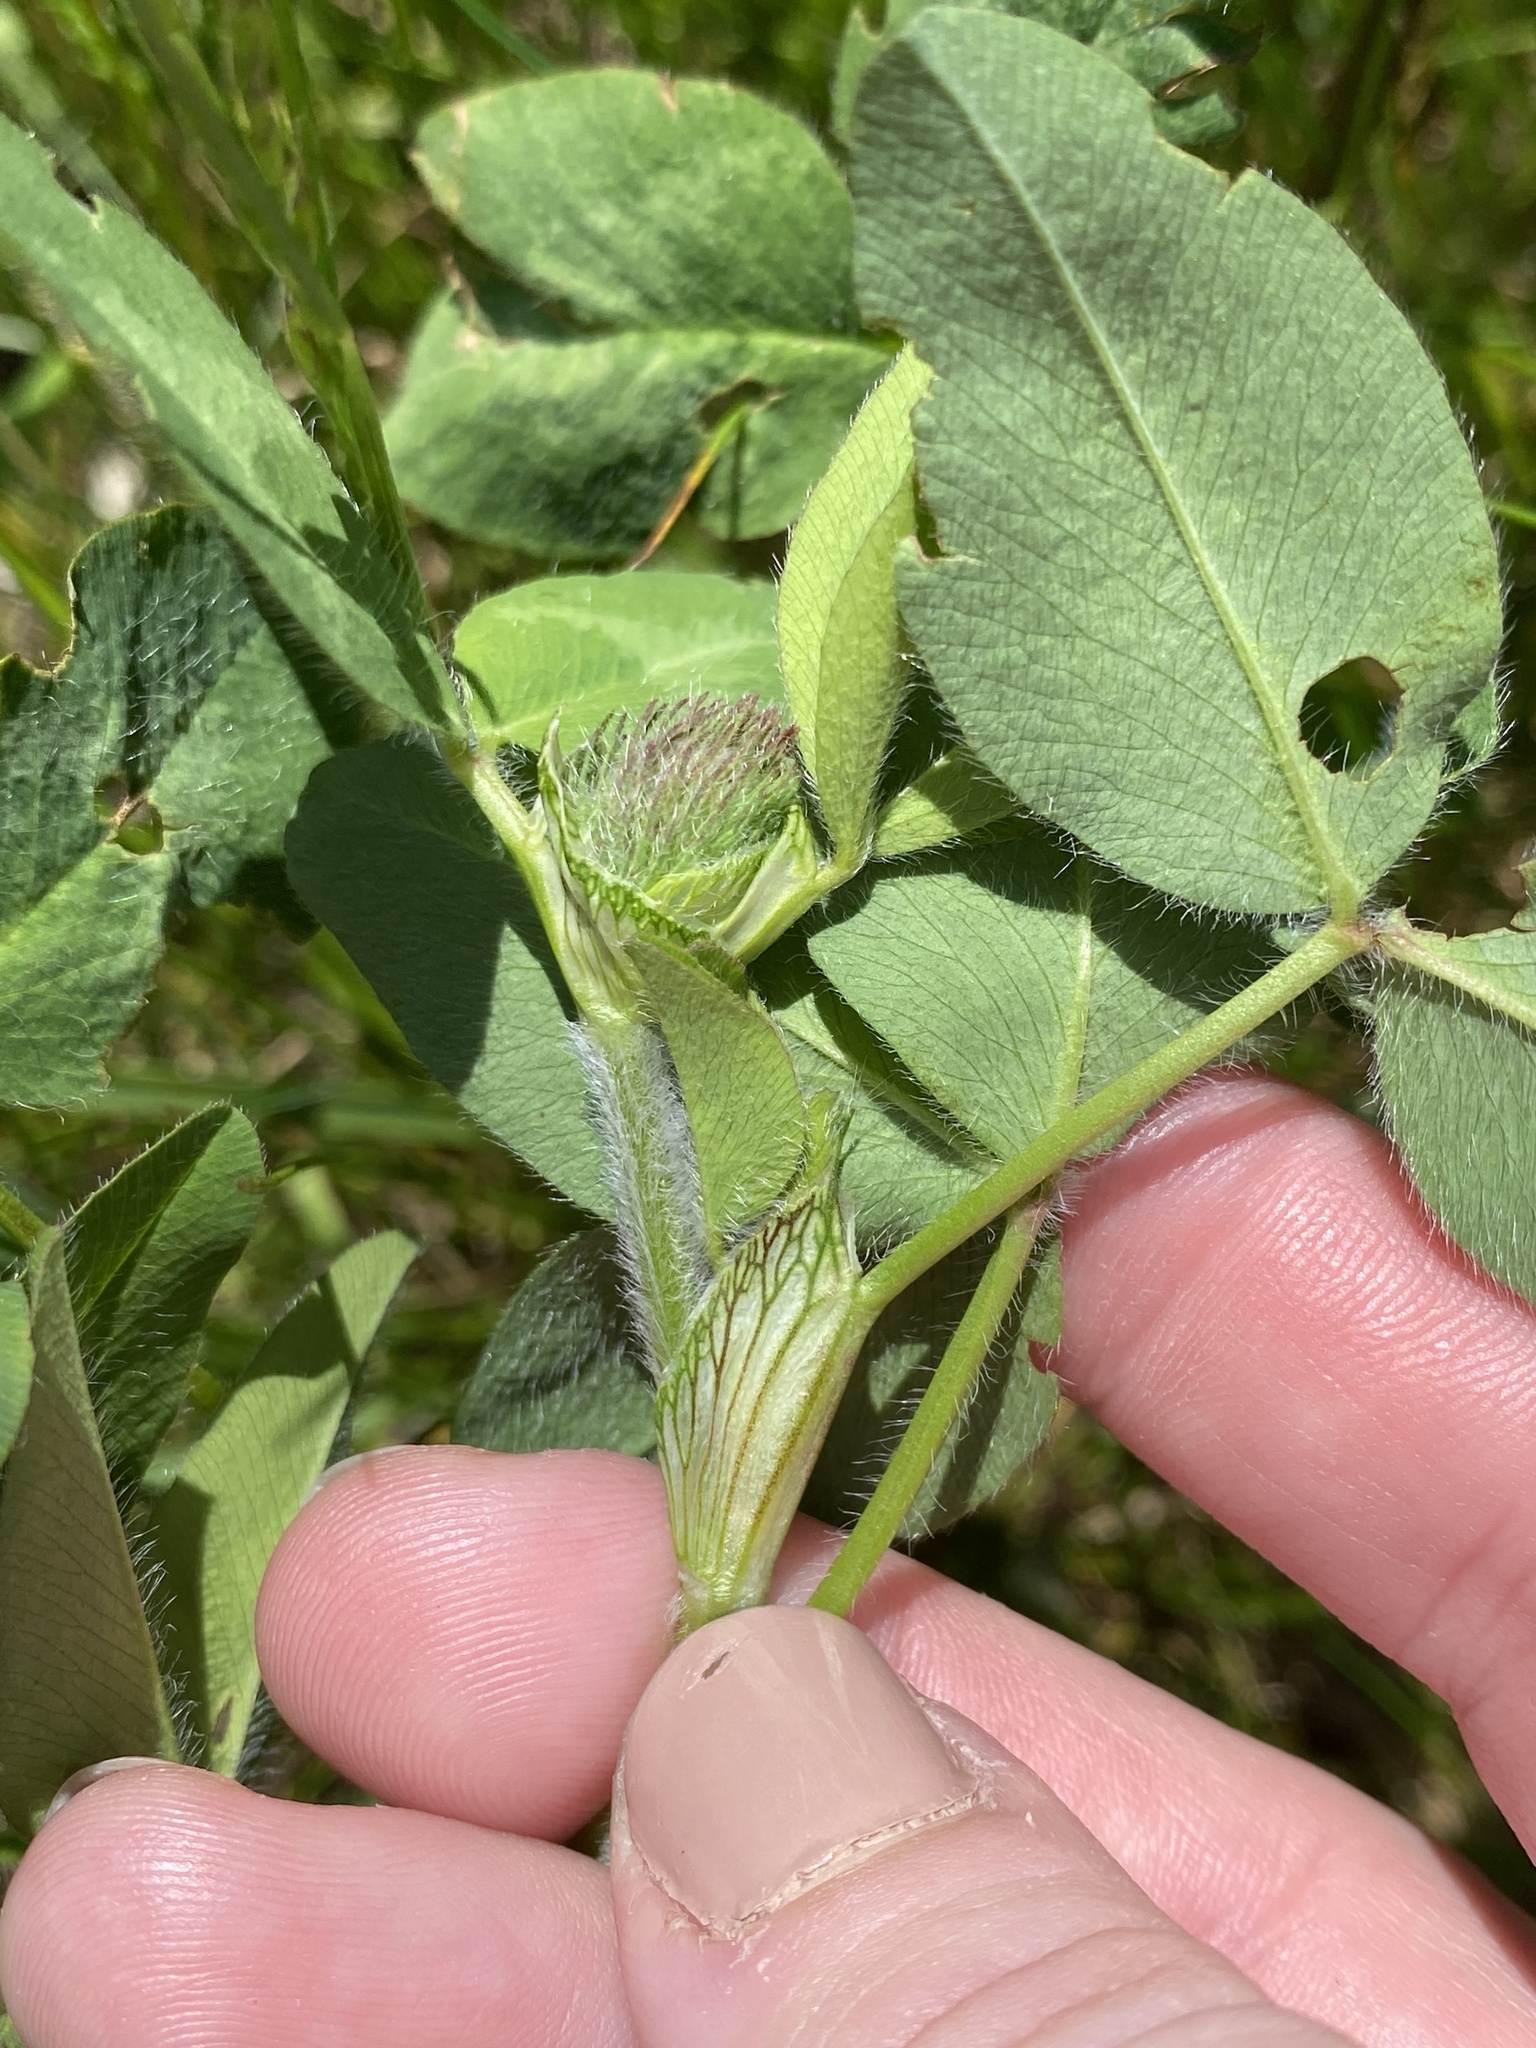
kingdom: Plantae
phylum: Tracheophyta
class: Magnoliopsida
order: Fabales
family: Fabaceae
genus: Trifolium
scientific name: Trifolium pratense
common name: Red clover
